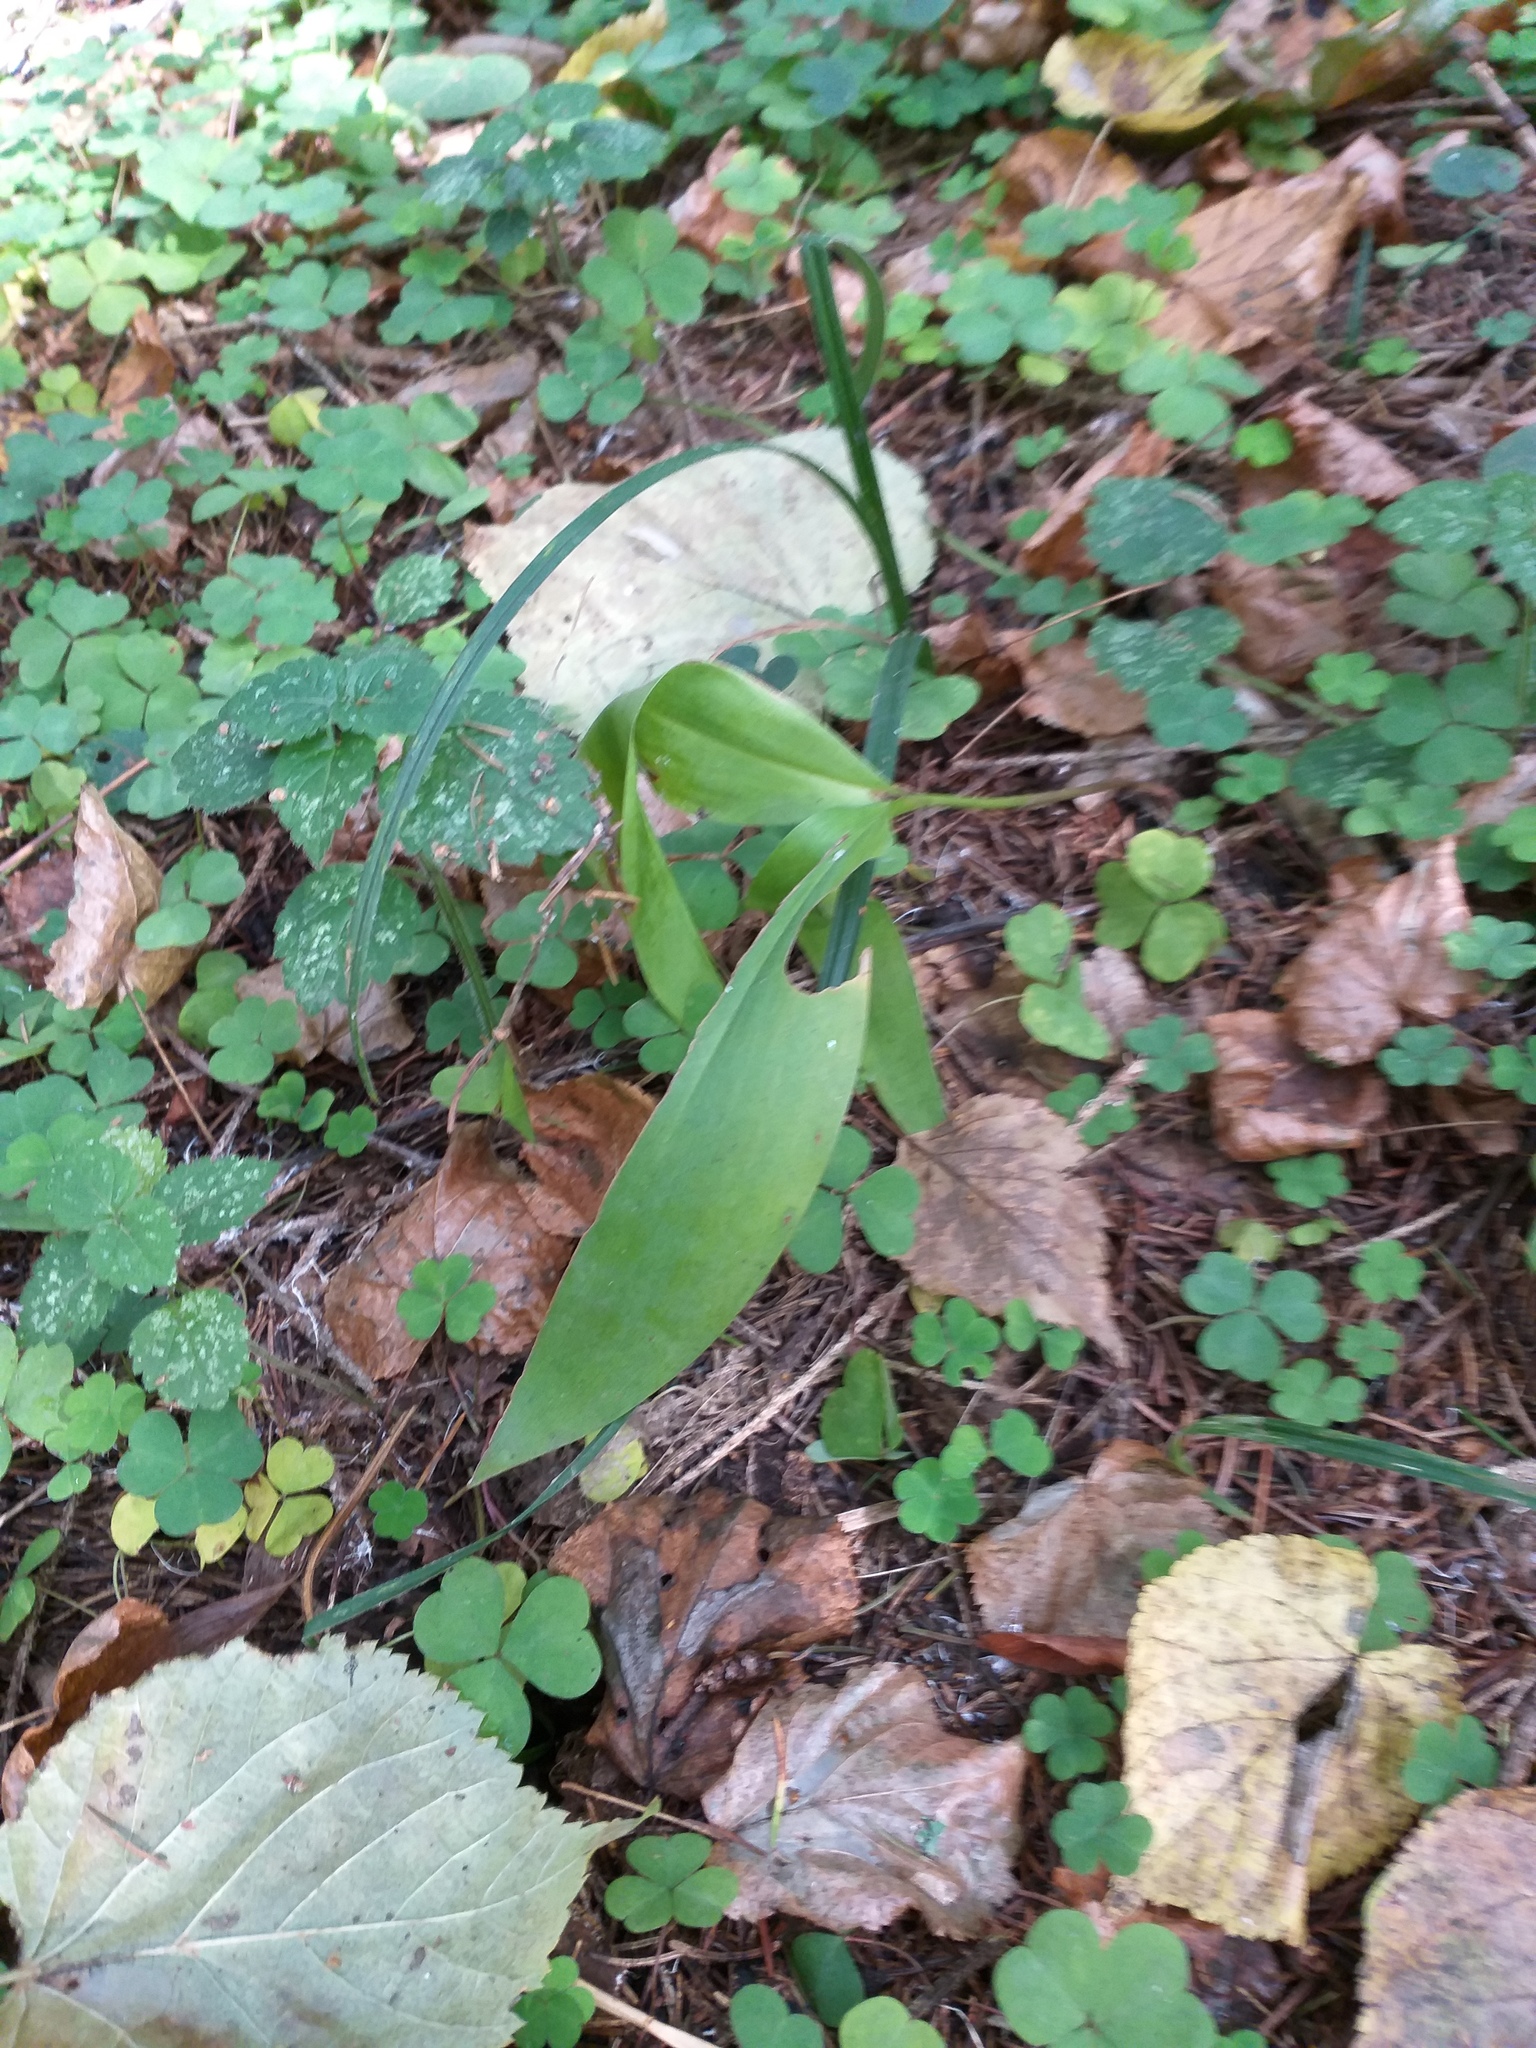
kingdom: Plantae
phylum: Tracheophyta
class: Liliopsida
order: Asparagales
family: Asparagaceae
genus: Convallaria
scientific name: Convallaria majalis
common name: Lily-of-the-valley
